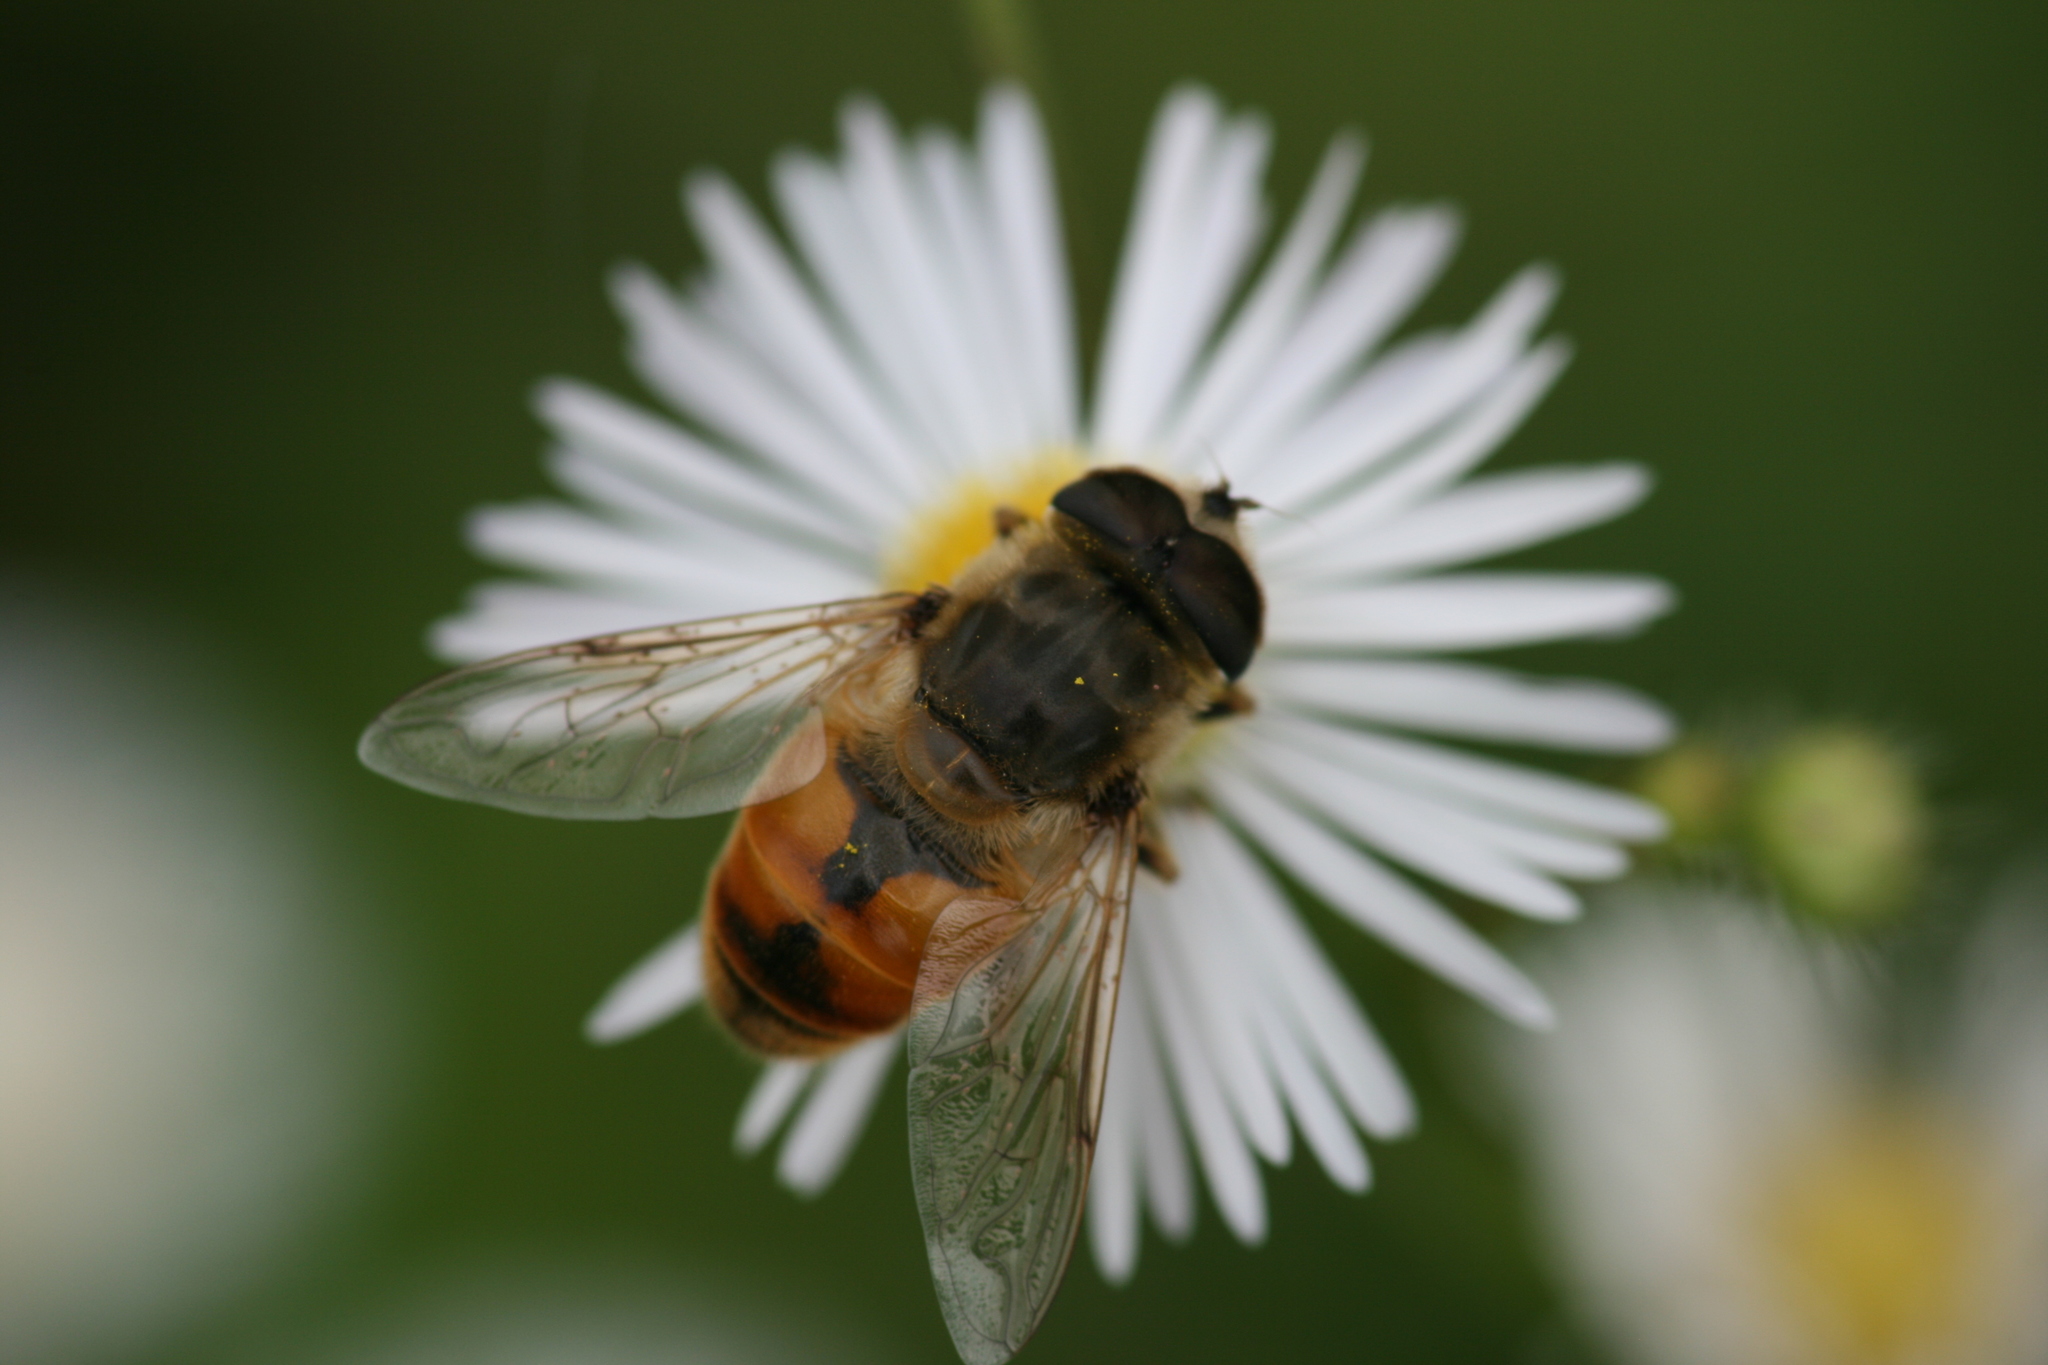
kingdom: Animalia
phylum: Arthropoda
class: Insecta
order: Diptera
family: Syrphidae
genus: Eristalis
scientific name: Eristalis tenax
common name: Drone fly
